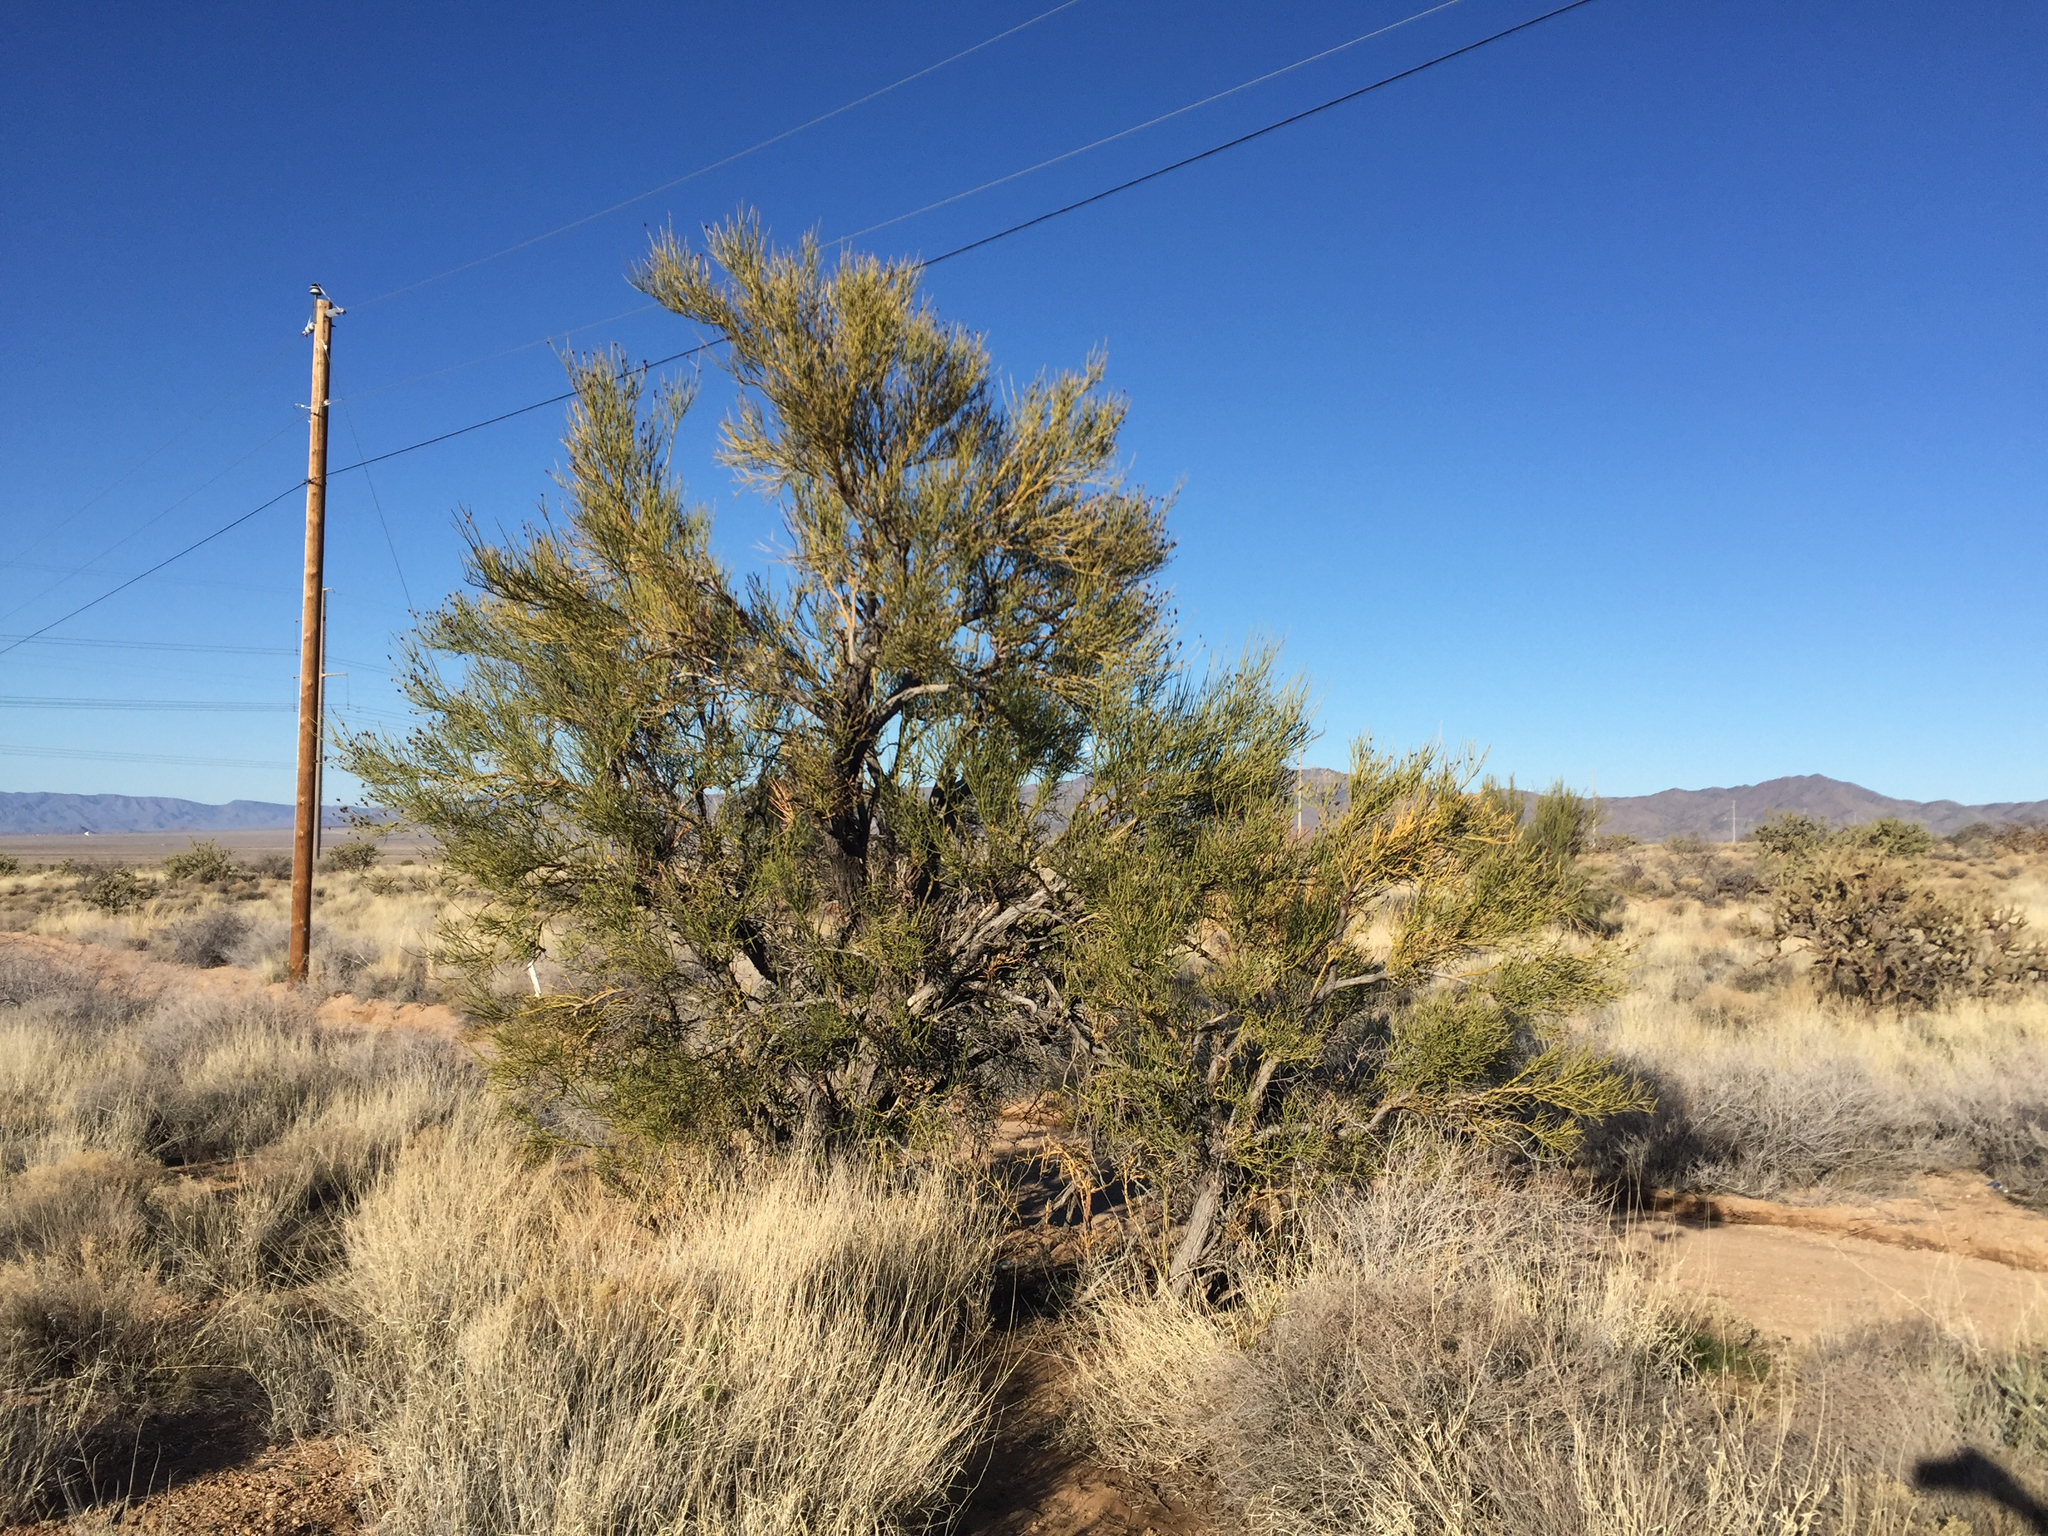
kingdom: Plantae
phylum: Tracheophyta
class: Magnoliopsida
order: Celastrales
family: Celastraceae
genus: Canotia
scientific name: Canotia holacantha
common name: Crucifixion thorns
